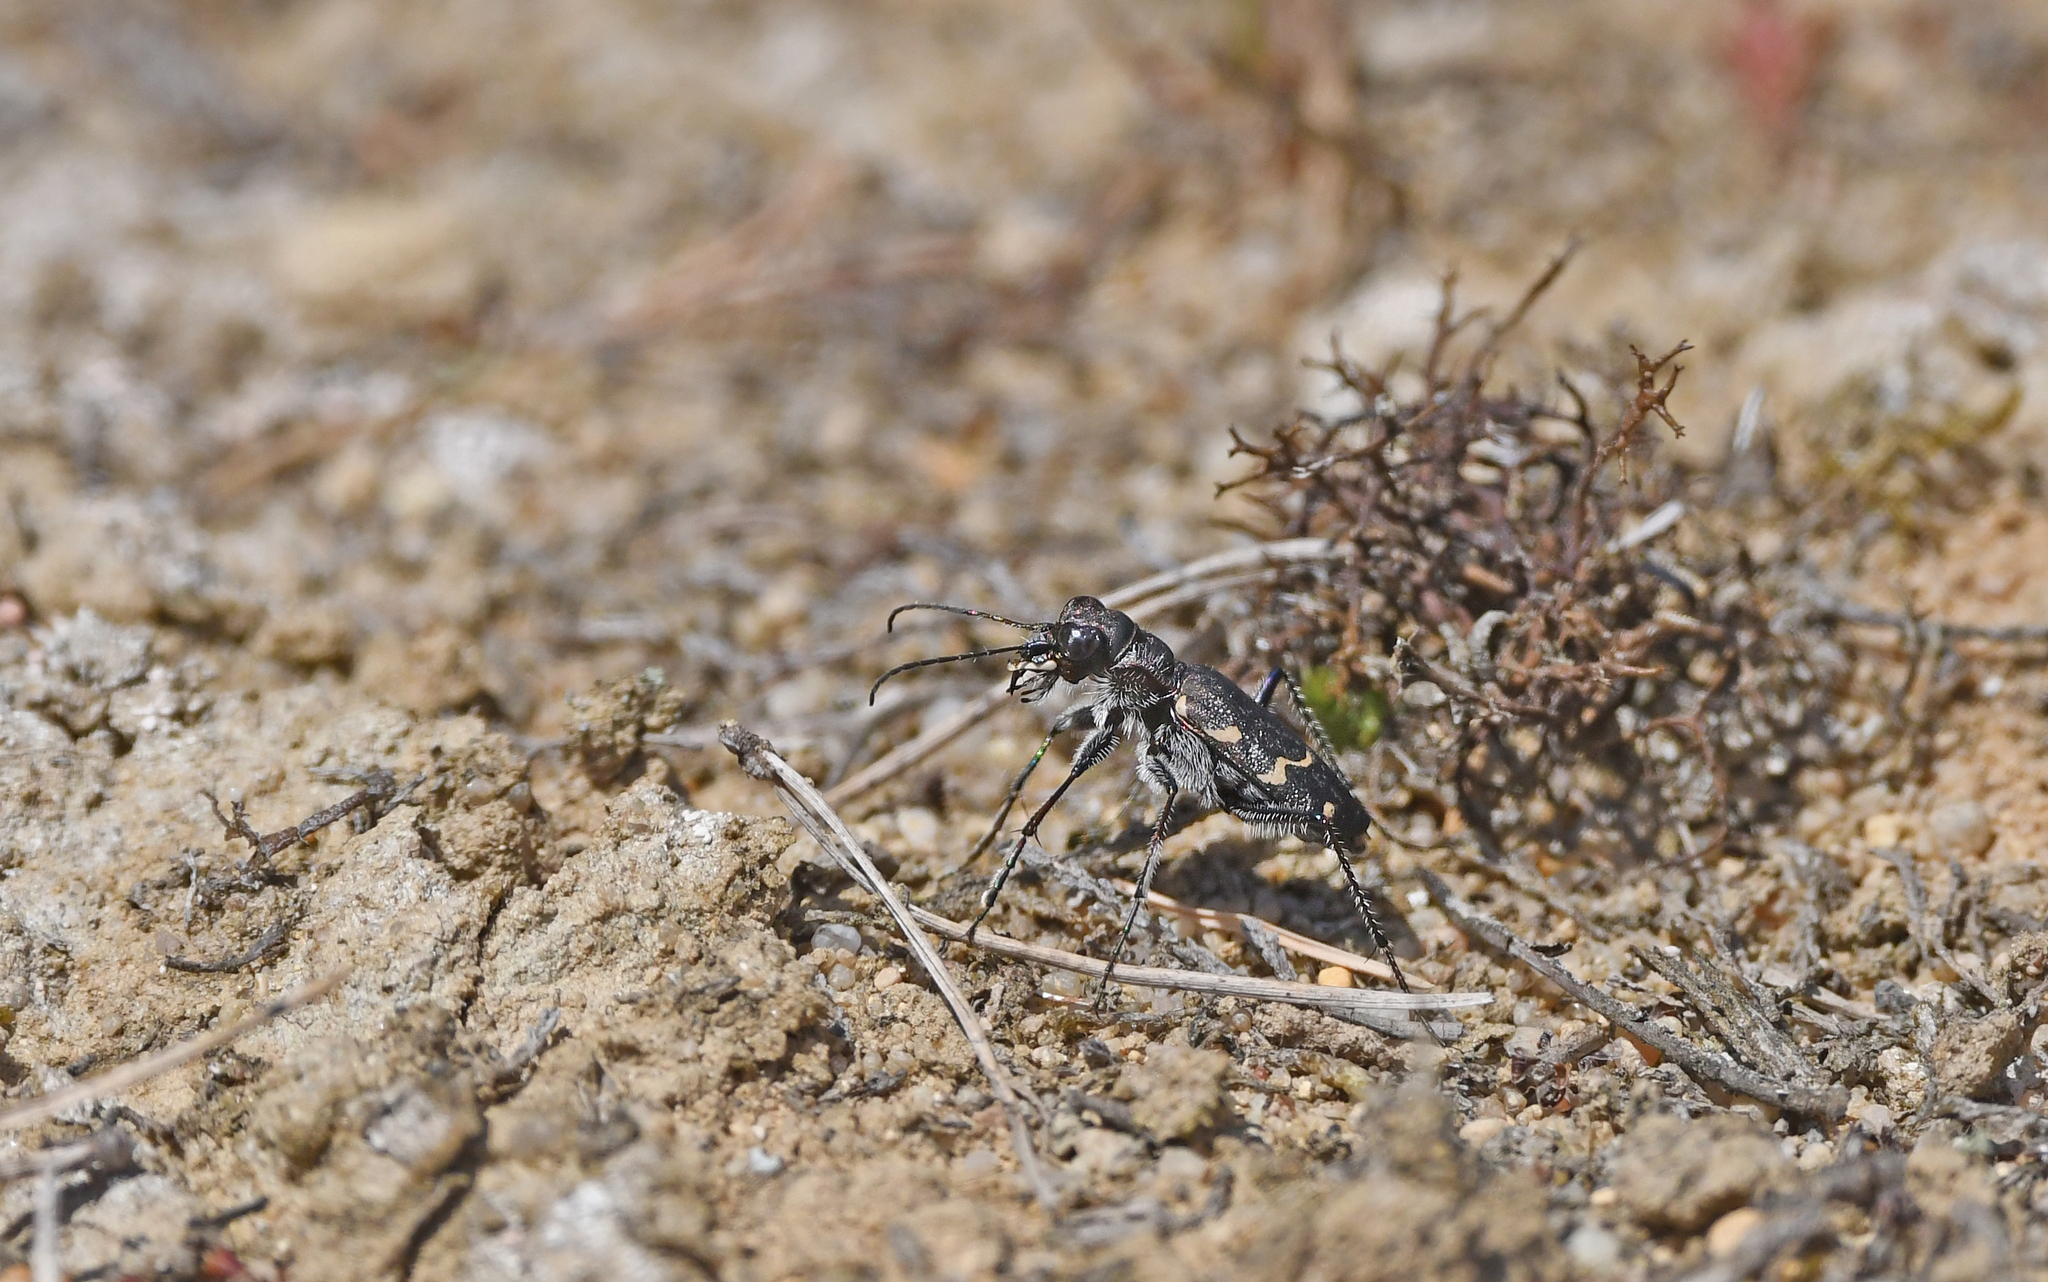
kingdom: Animalia
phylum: Arthropoda
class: Insecta
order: Coleoptera
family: Carabidae
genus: Cicindela
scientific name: Cicindela sylvatica
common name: Heath tiger beetle
